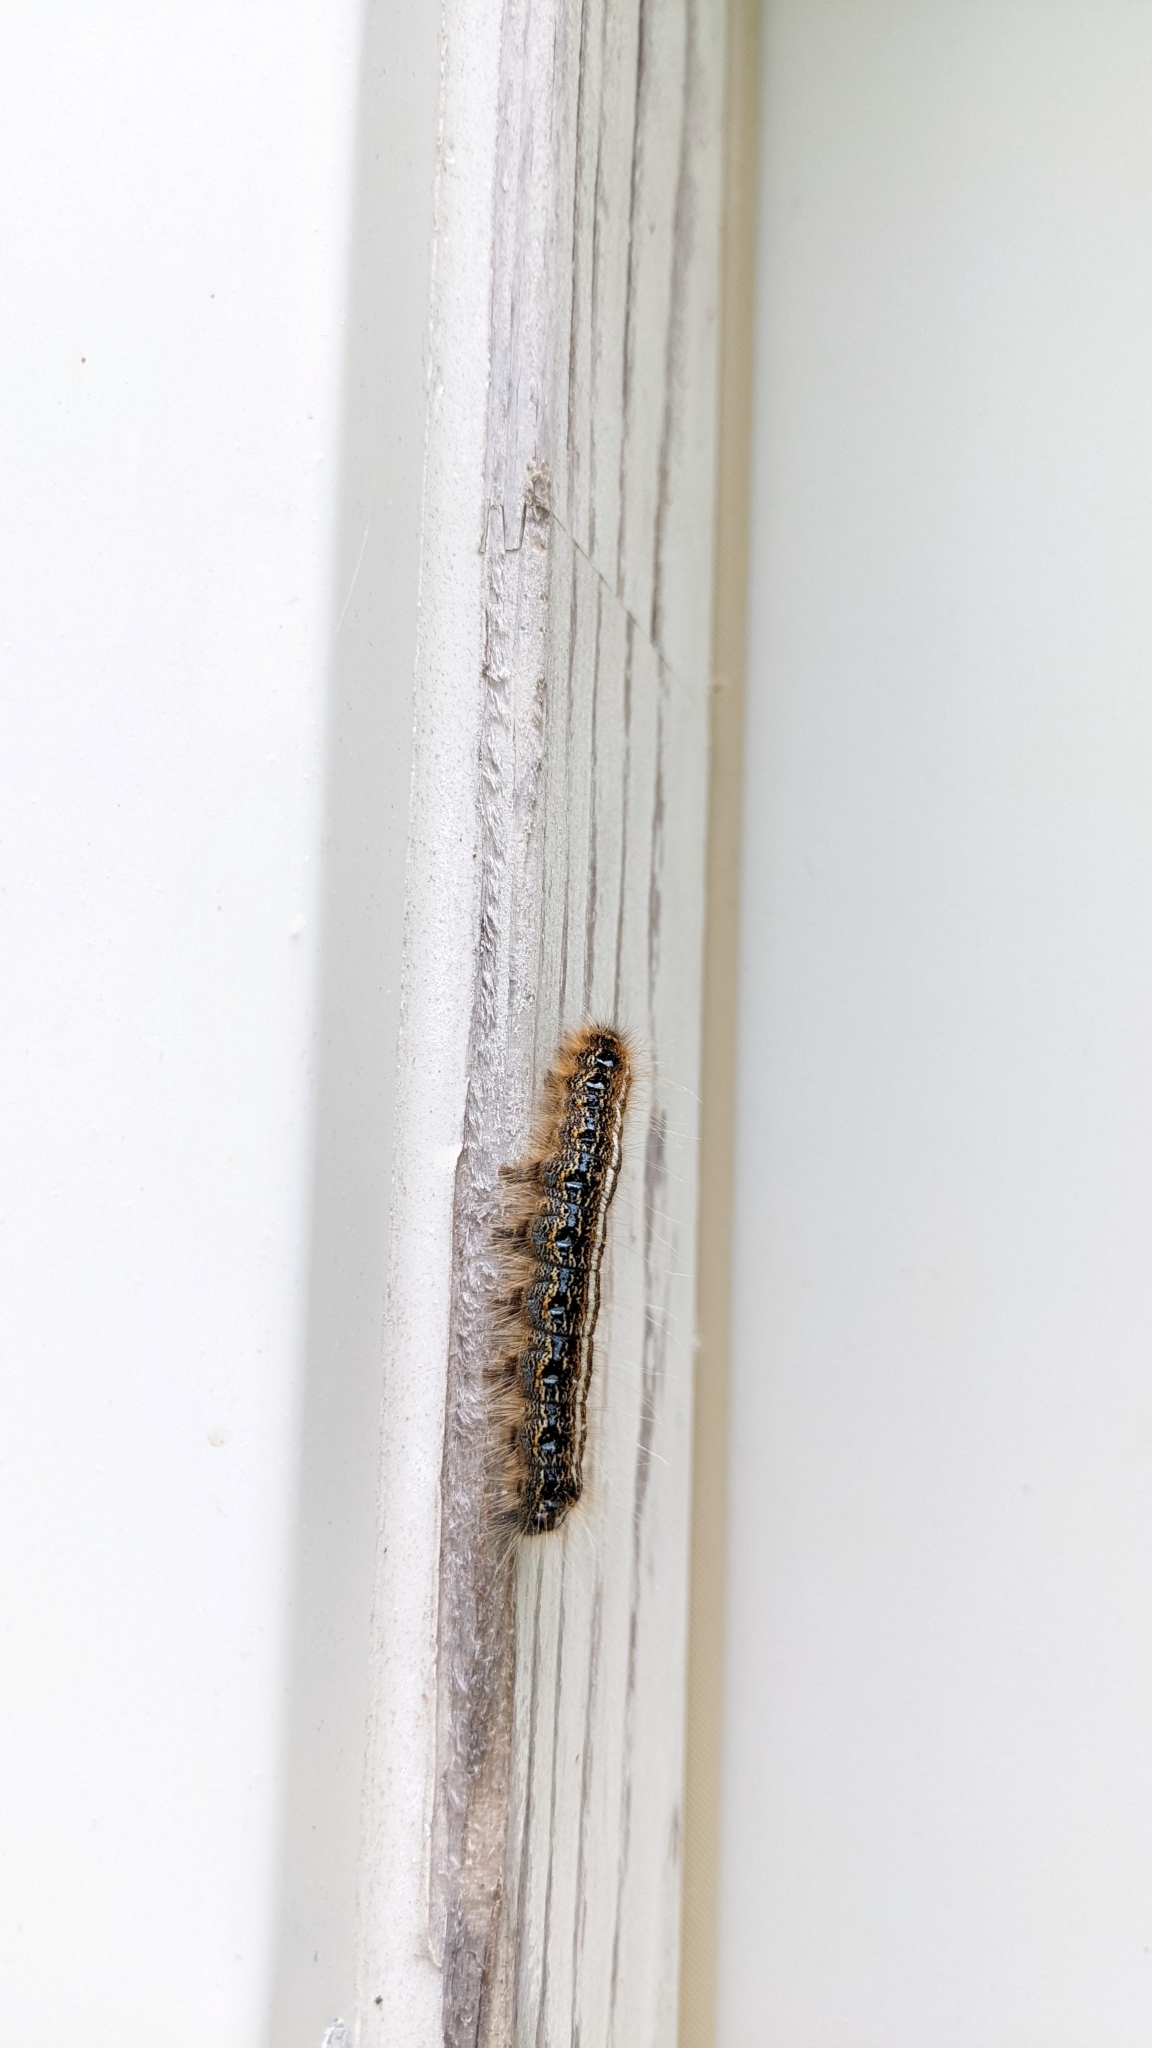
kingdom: Animalia
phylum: Arthropoda
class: Insecta
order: Lepidoptera
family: Lasiocampidae
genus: Malacosoma
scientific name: Malacosoma americana
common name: Eastern tent caterpillar moth
